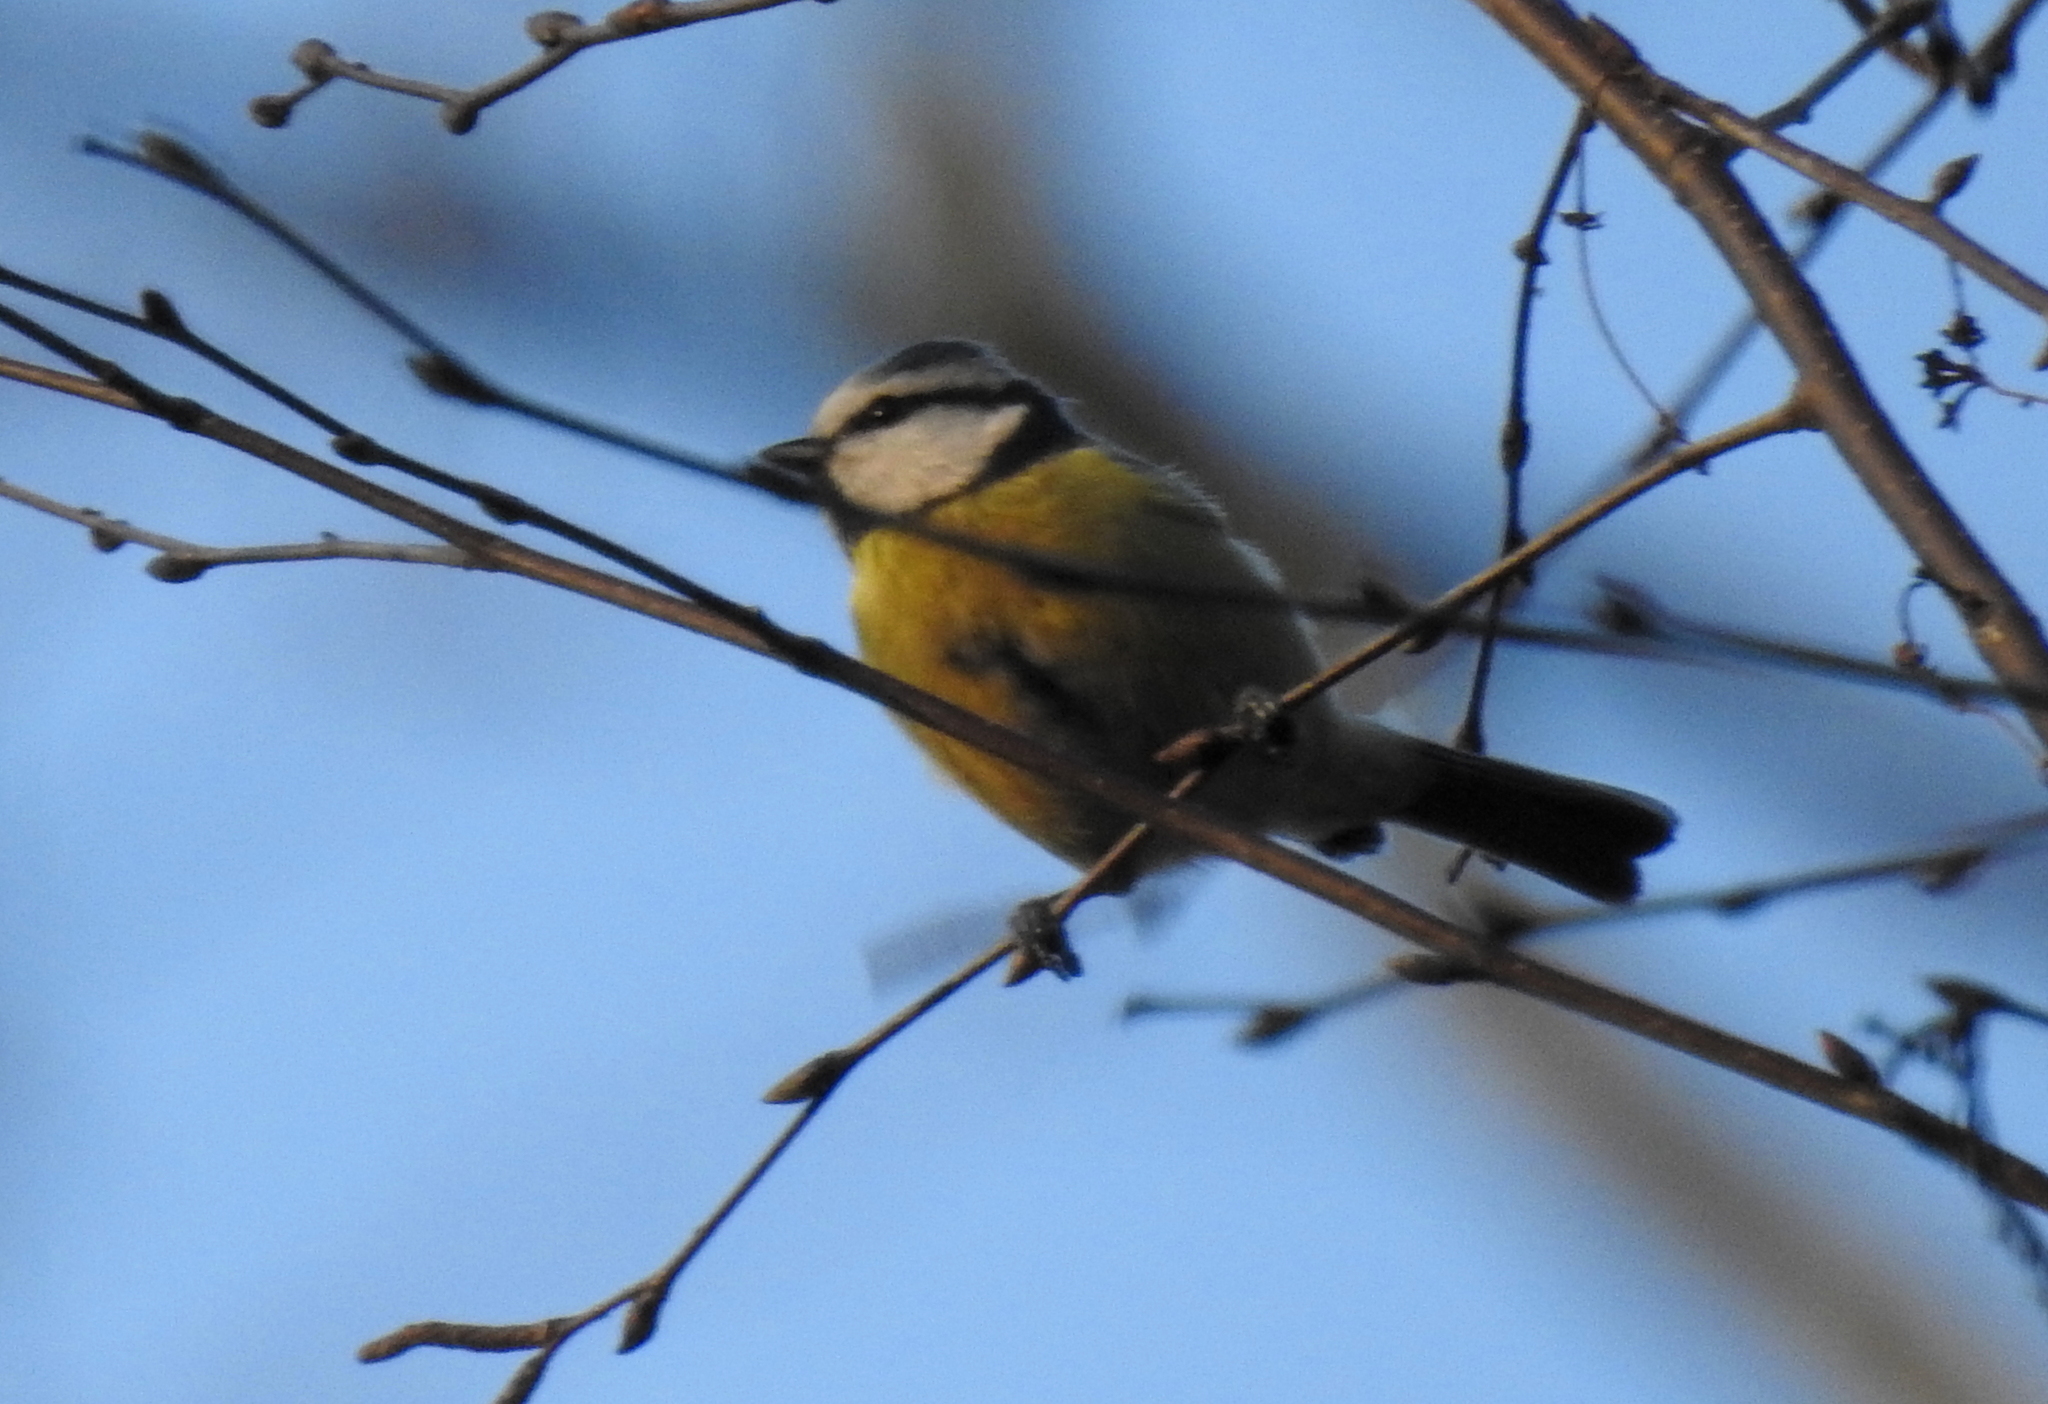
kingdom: Animalia
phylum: Chordata
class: Aves
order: Passeriformes
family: Paridae
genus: Cyanistes
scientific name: Cyanistes caeruleus
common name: Eurasian blue tit
